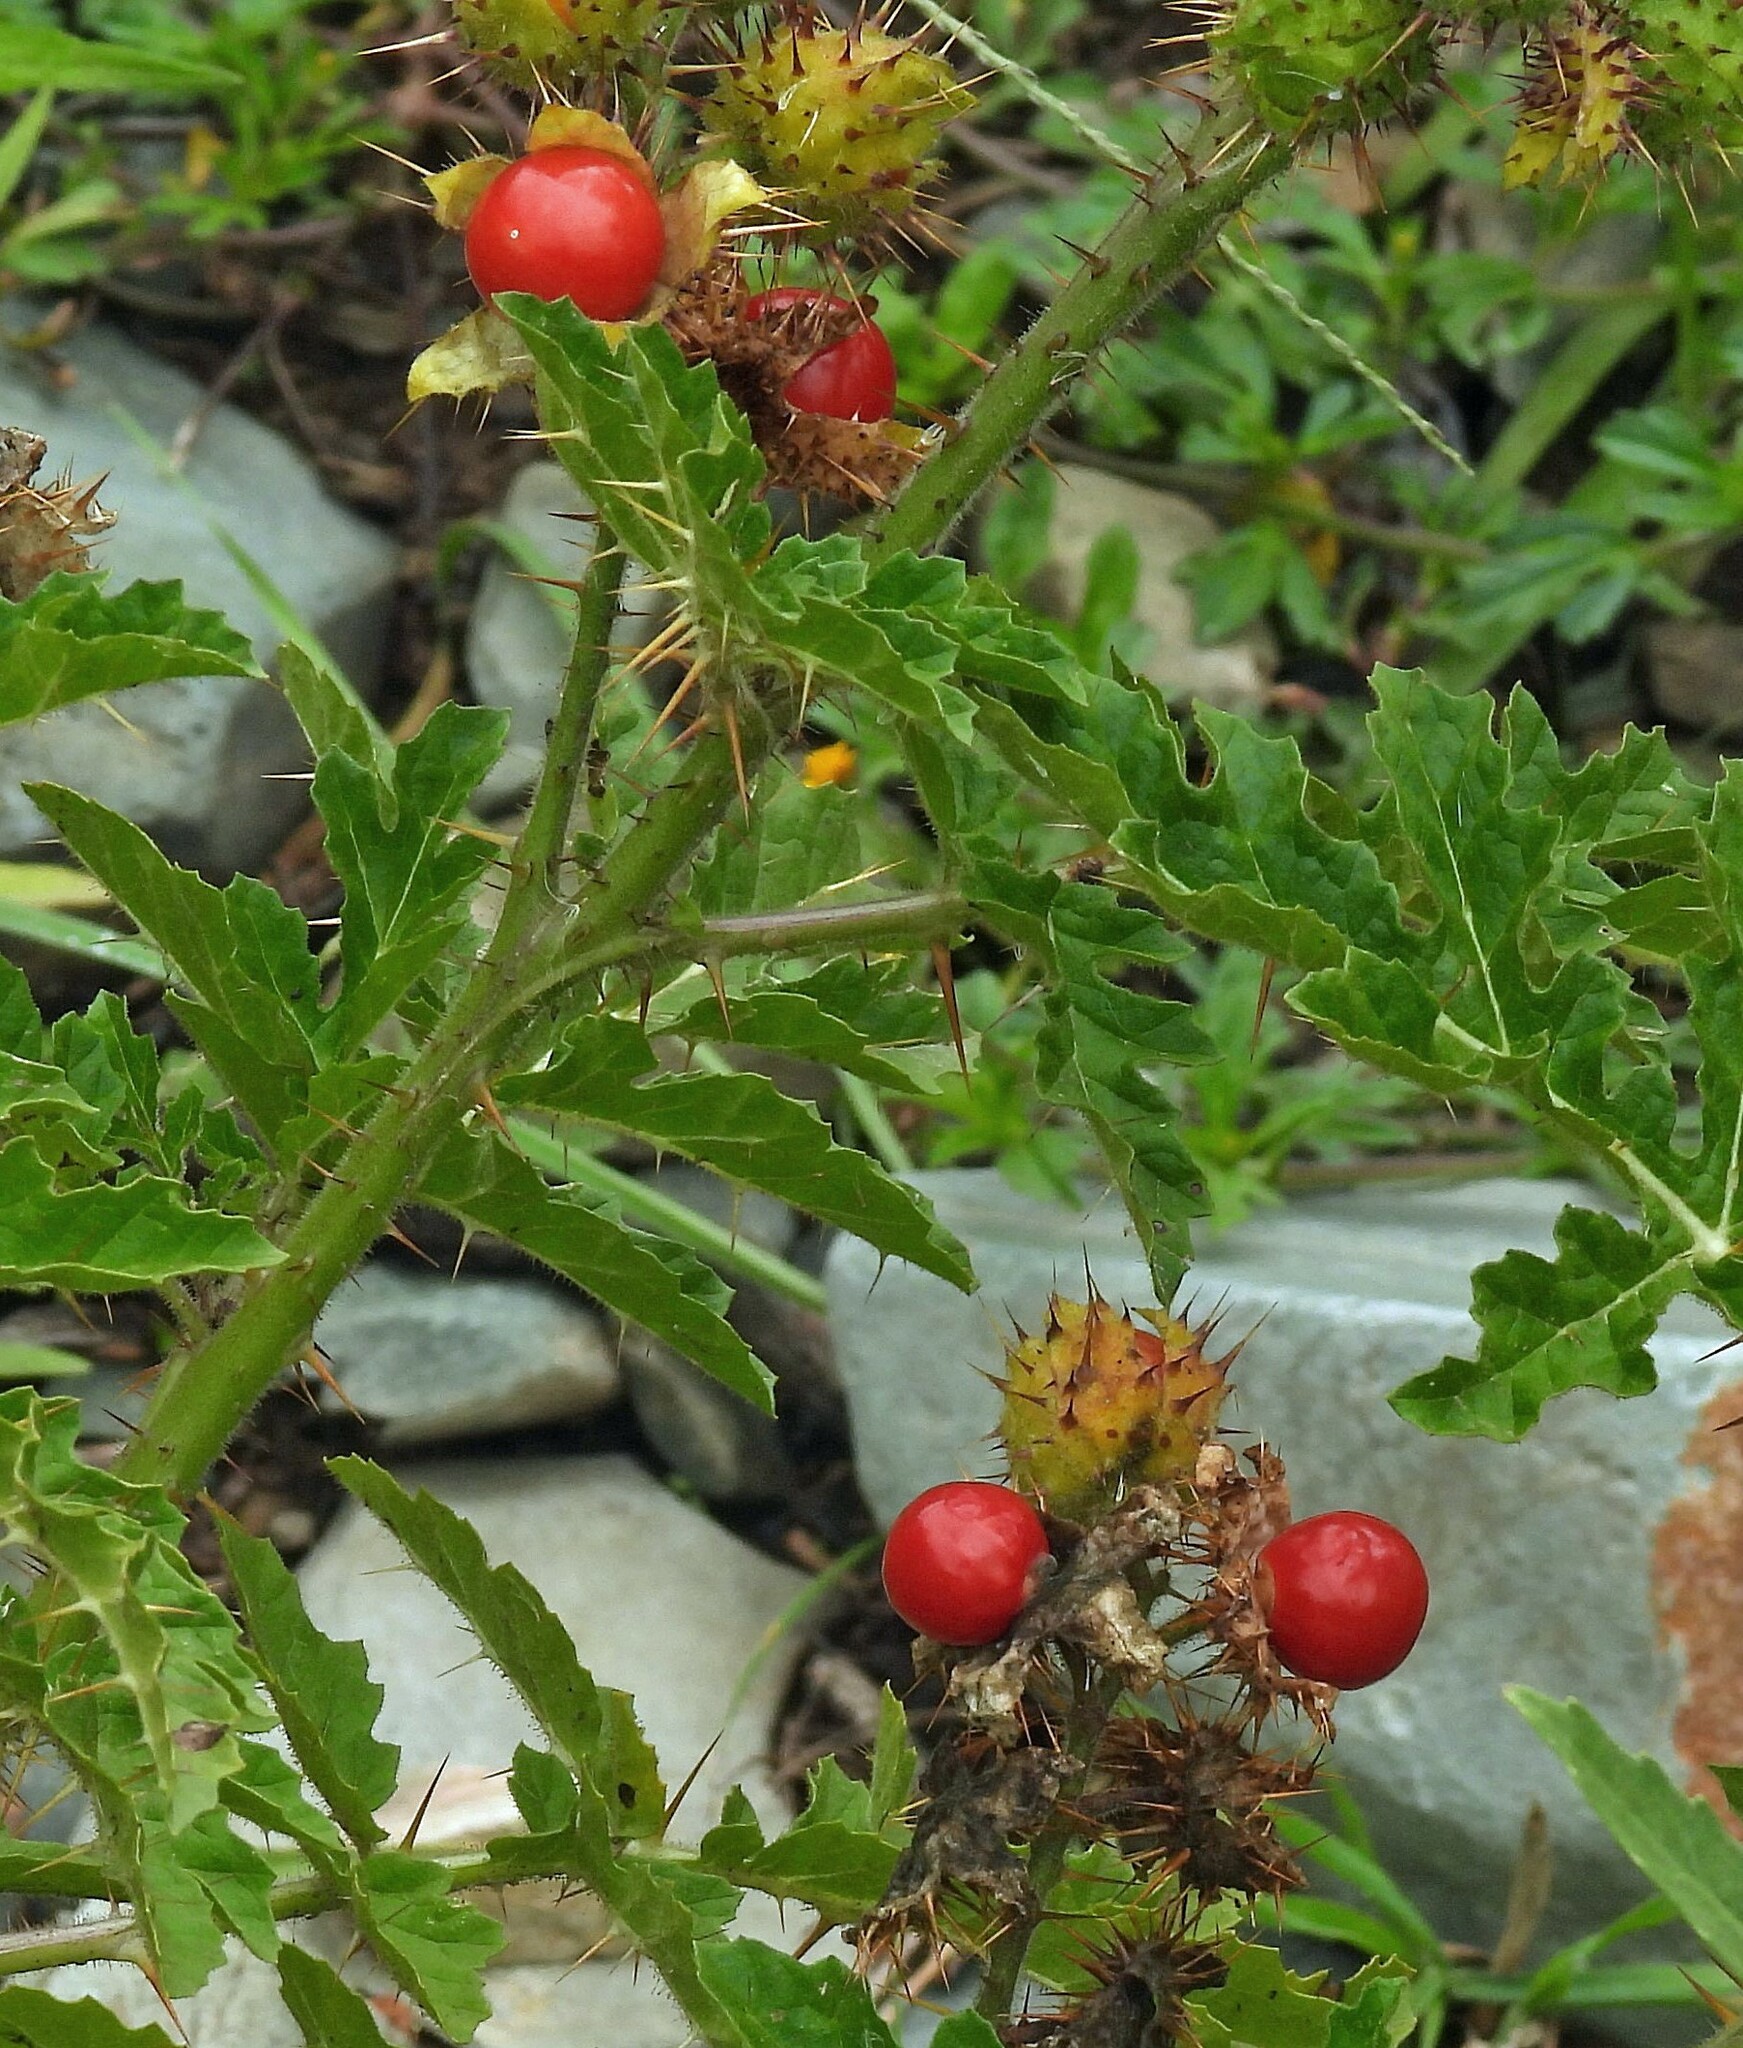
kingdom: Plantae
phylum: Tracheophyta
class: Magnoliopsida
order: Solanales
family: Solanaceae
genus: Solanum
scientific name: Solanum sisymbriifolium
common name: Red buffalo-bur
